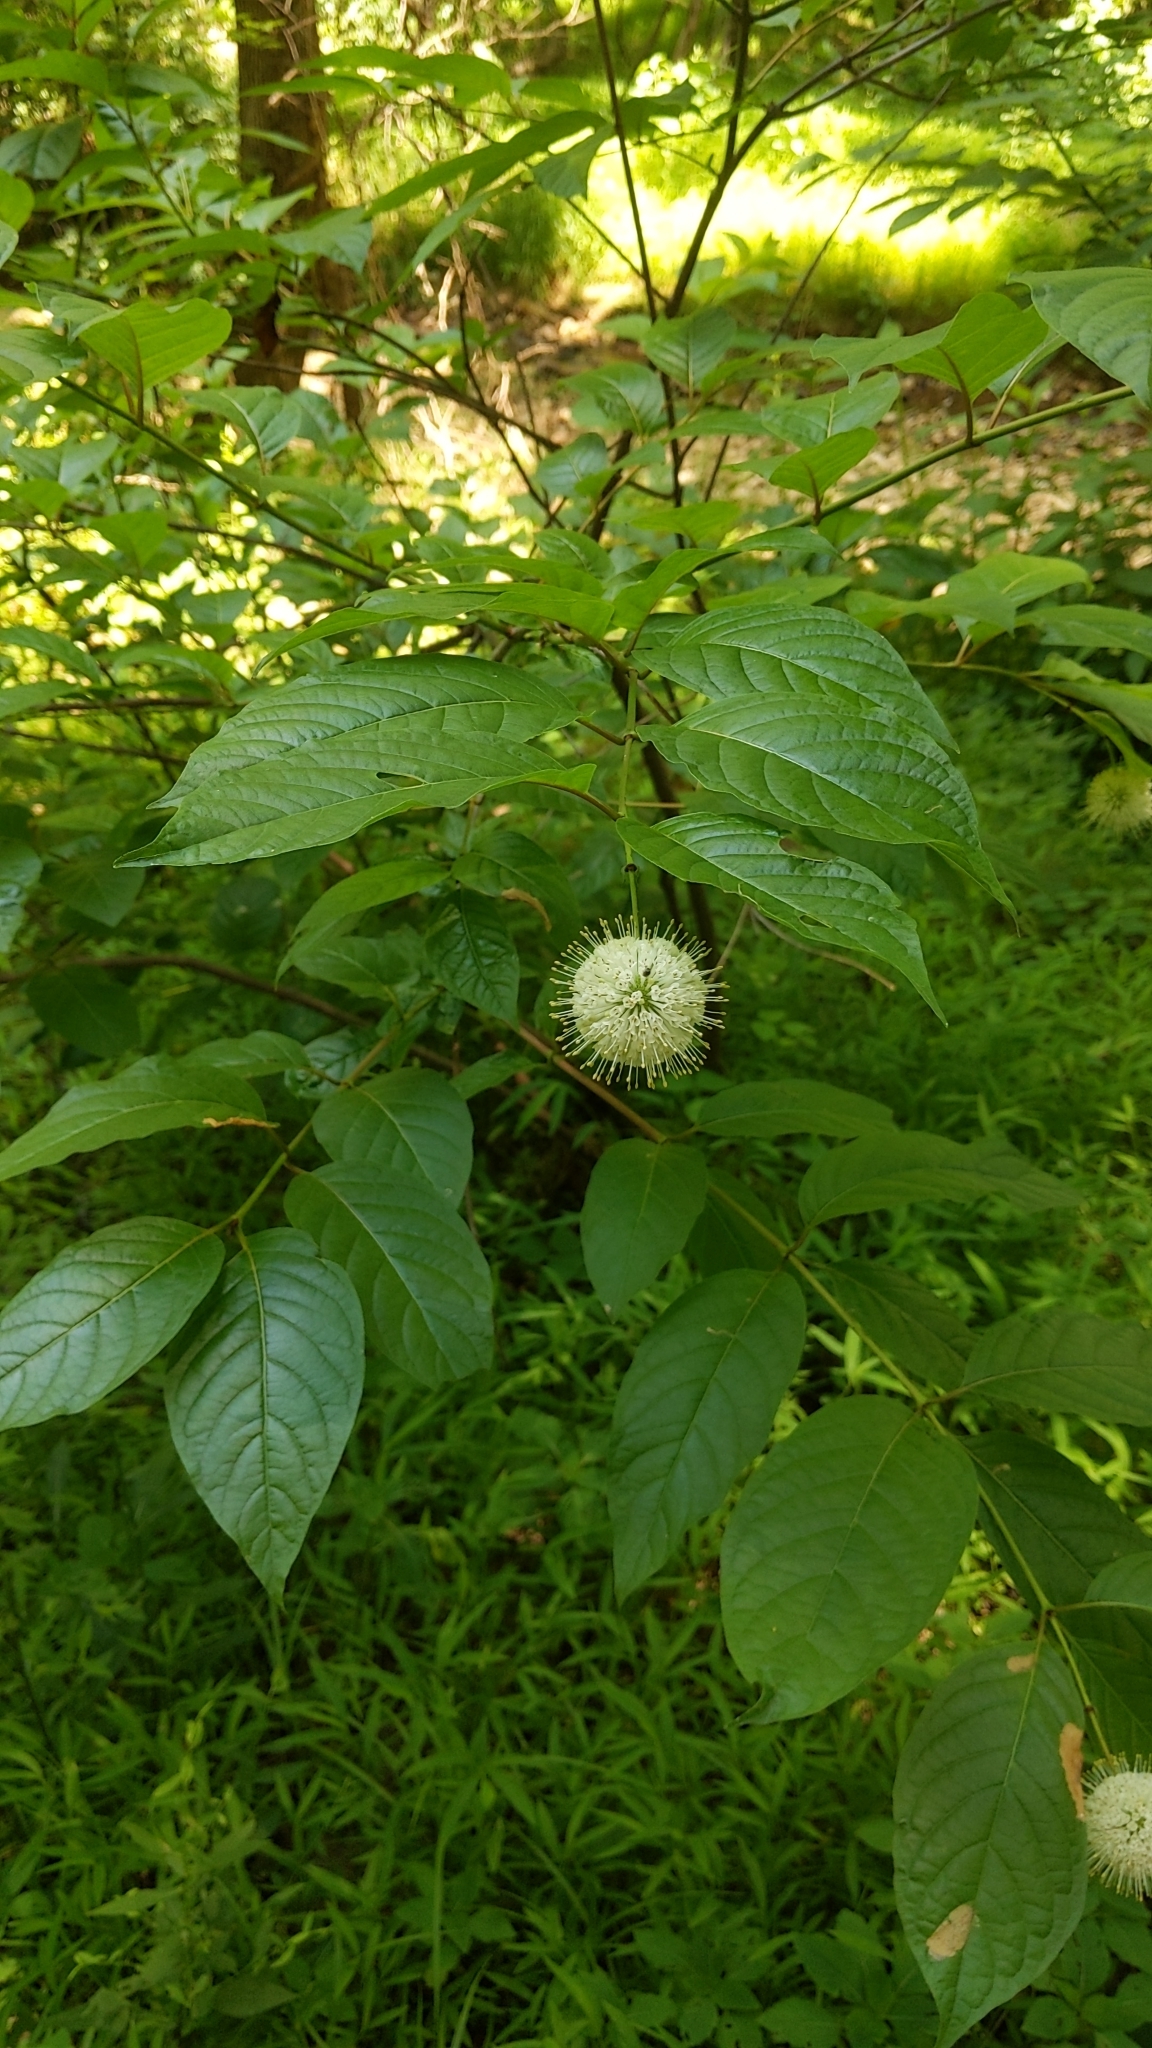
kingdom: Plantae
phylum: Tracheophyta
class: Magnoliopsida
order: Gentianales
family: Rubiaceae
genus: Cephalanthus
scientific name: Cephalanthus occidentalis
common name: Button-willow
